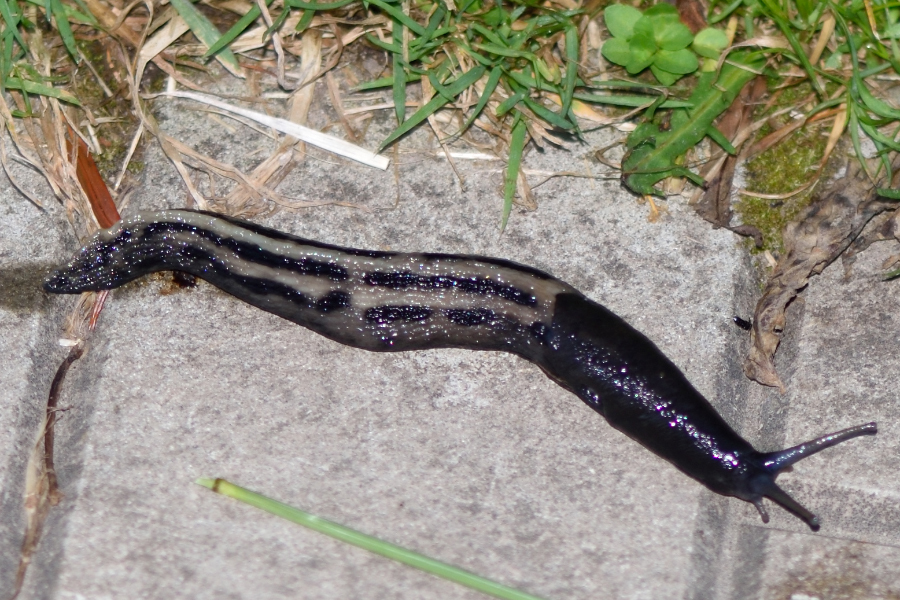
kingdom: Animalia
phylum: Mollusca
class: Gastropoda
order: Stylommatophora
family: Limacidae
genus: Limax
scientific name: Limax cinereoniger
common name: Ash-black slug
